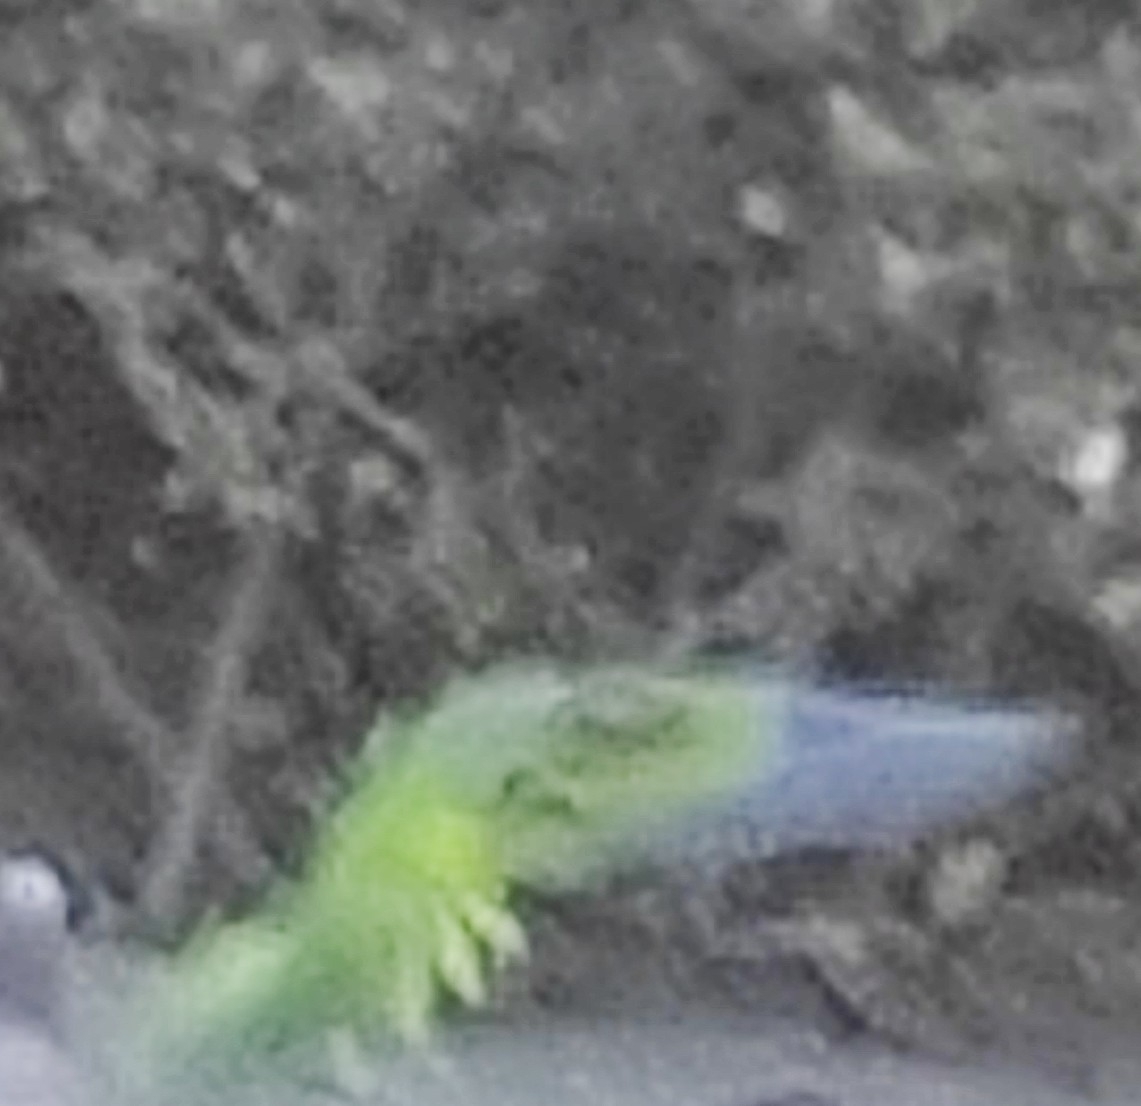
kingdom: Animalia
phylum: Chordata
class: Aves
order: Psittaciformes
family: Psittacidae
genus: Myiopsitta
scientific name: Myiopsitta monachus
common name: Monk parakeet
